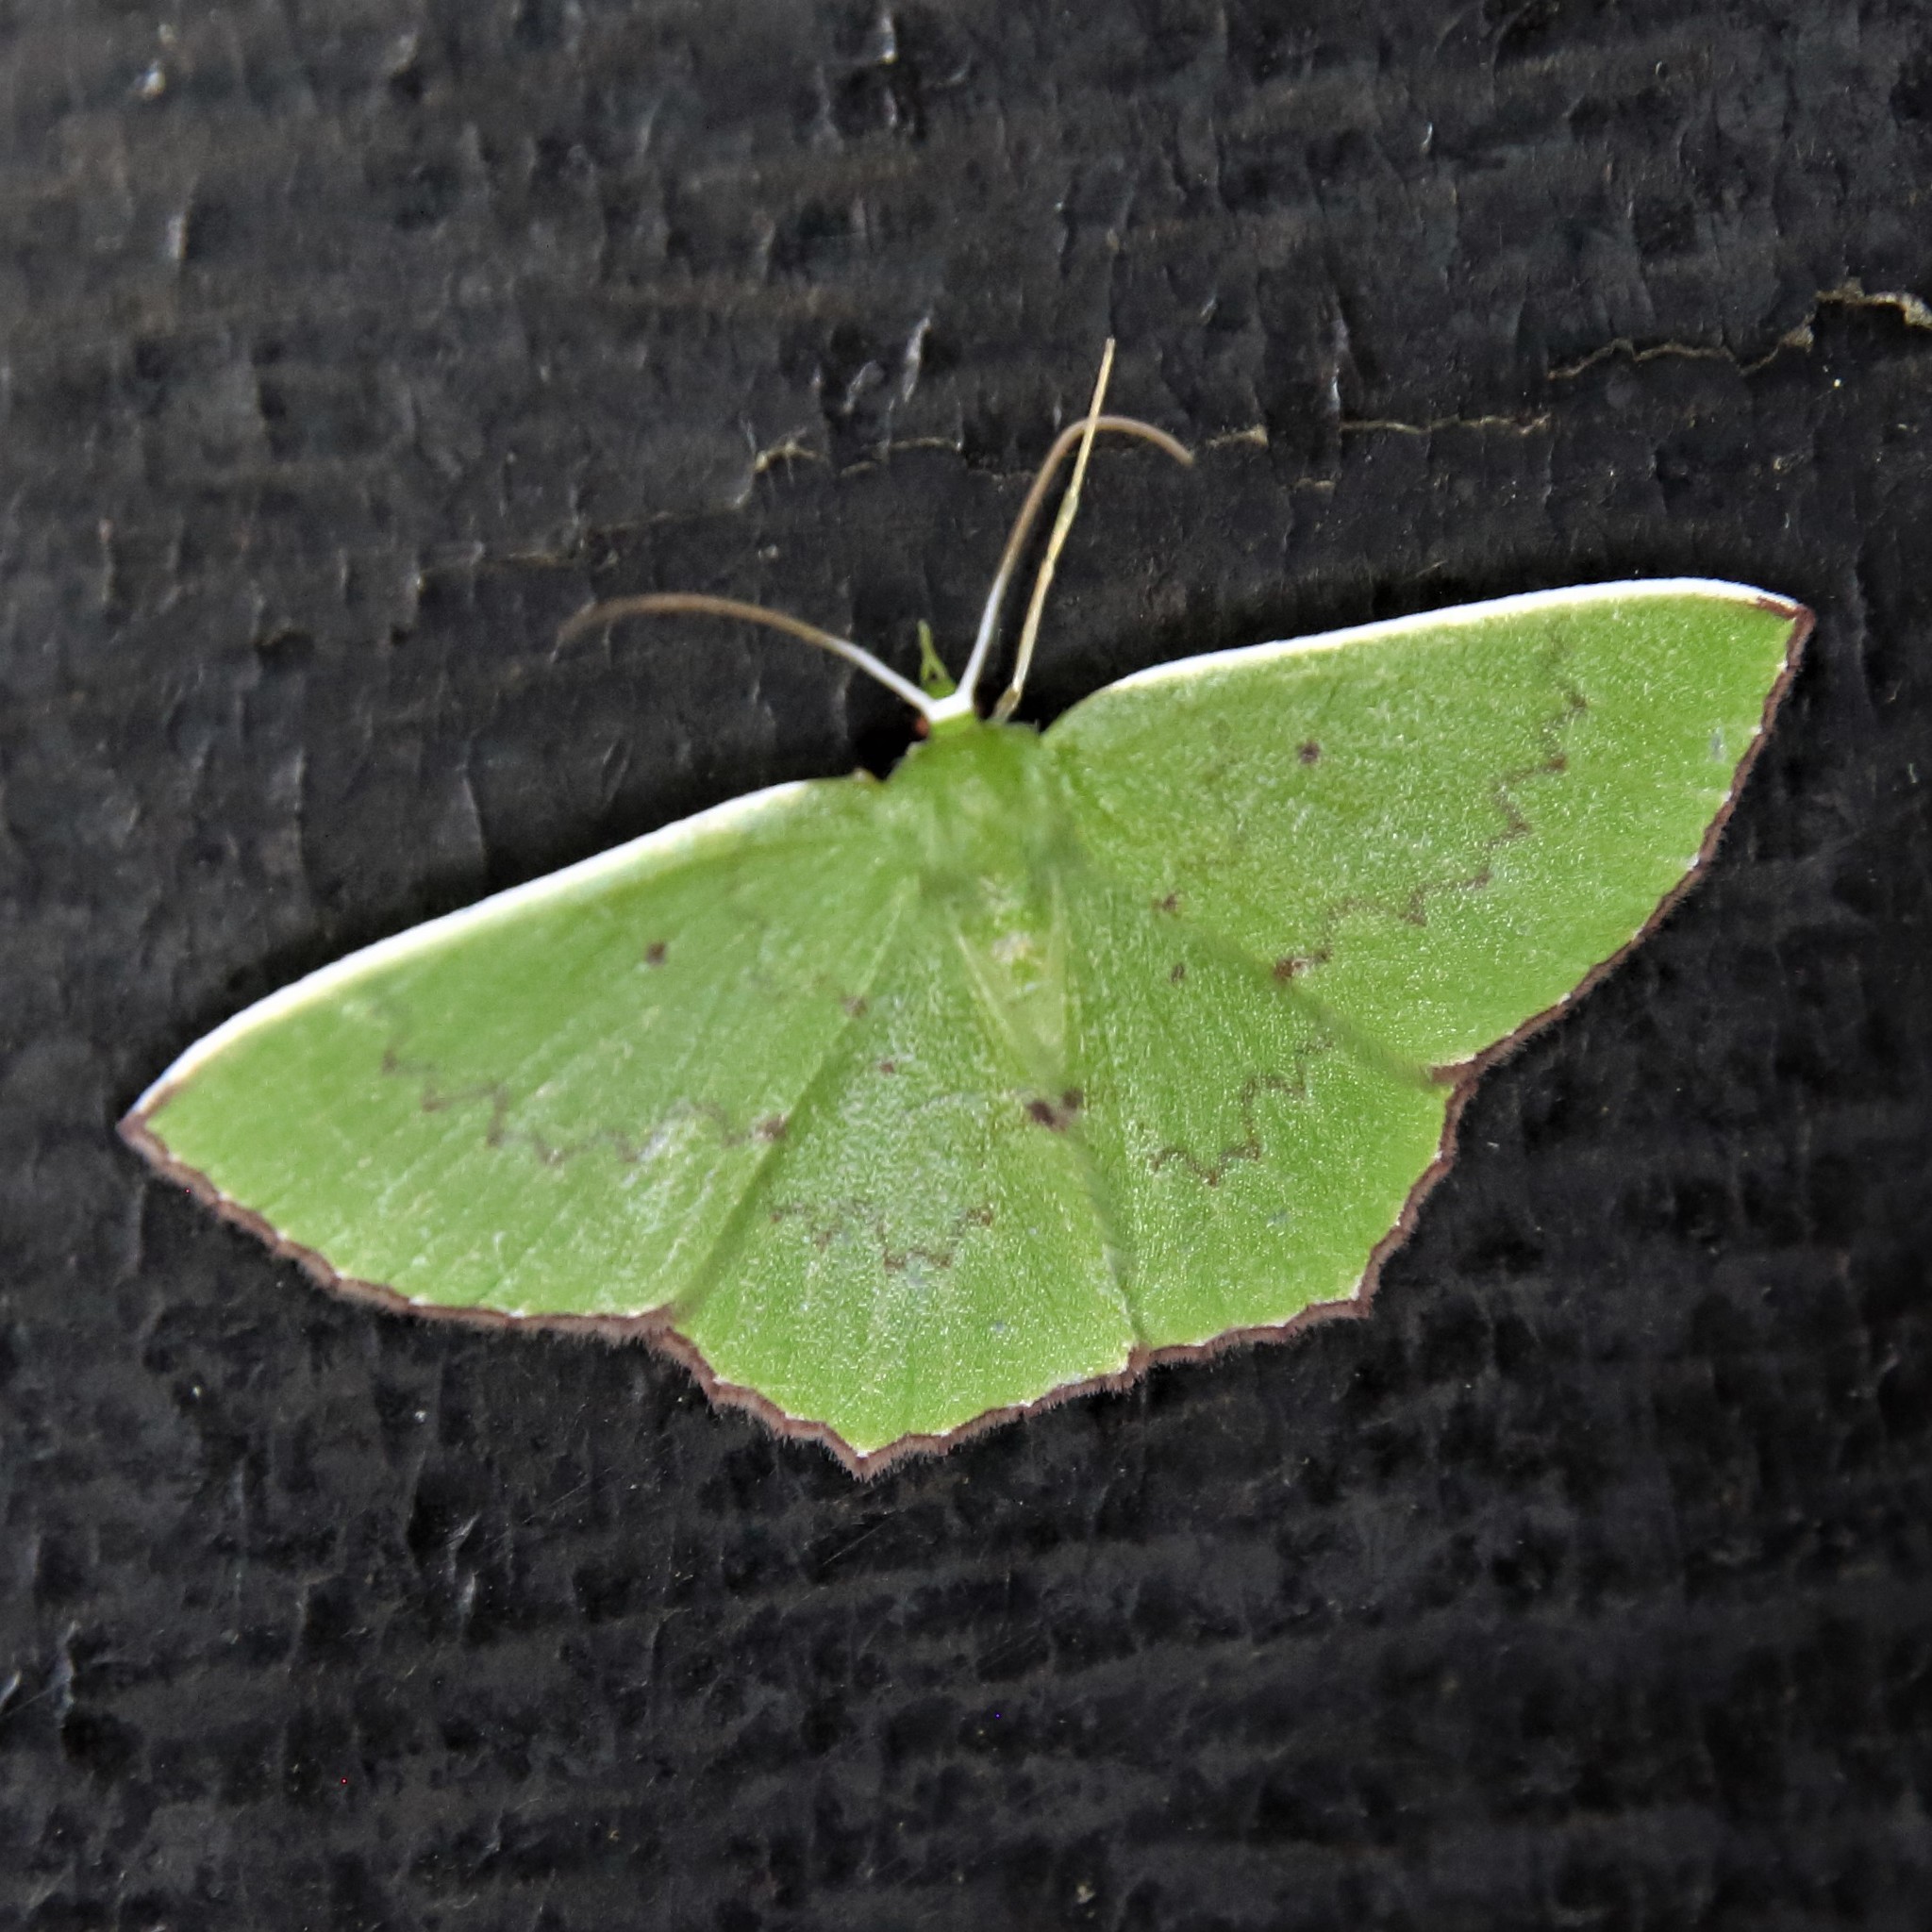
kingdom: Animalia
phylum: Arthropoda
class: Insecta
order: Lepidoptera
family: Geometridae
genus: Oenospila
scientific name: Oenospila flavifusata
